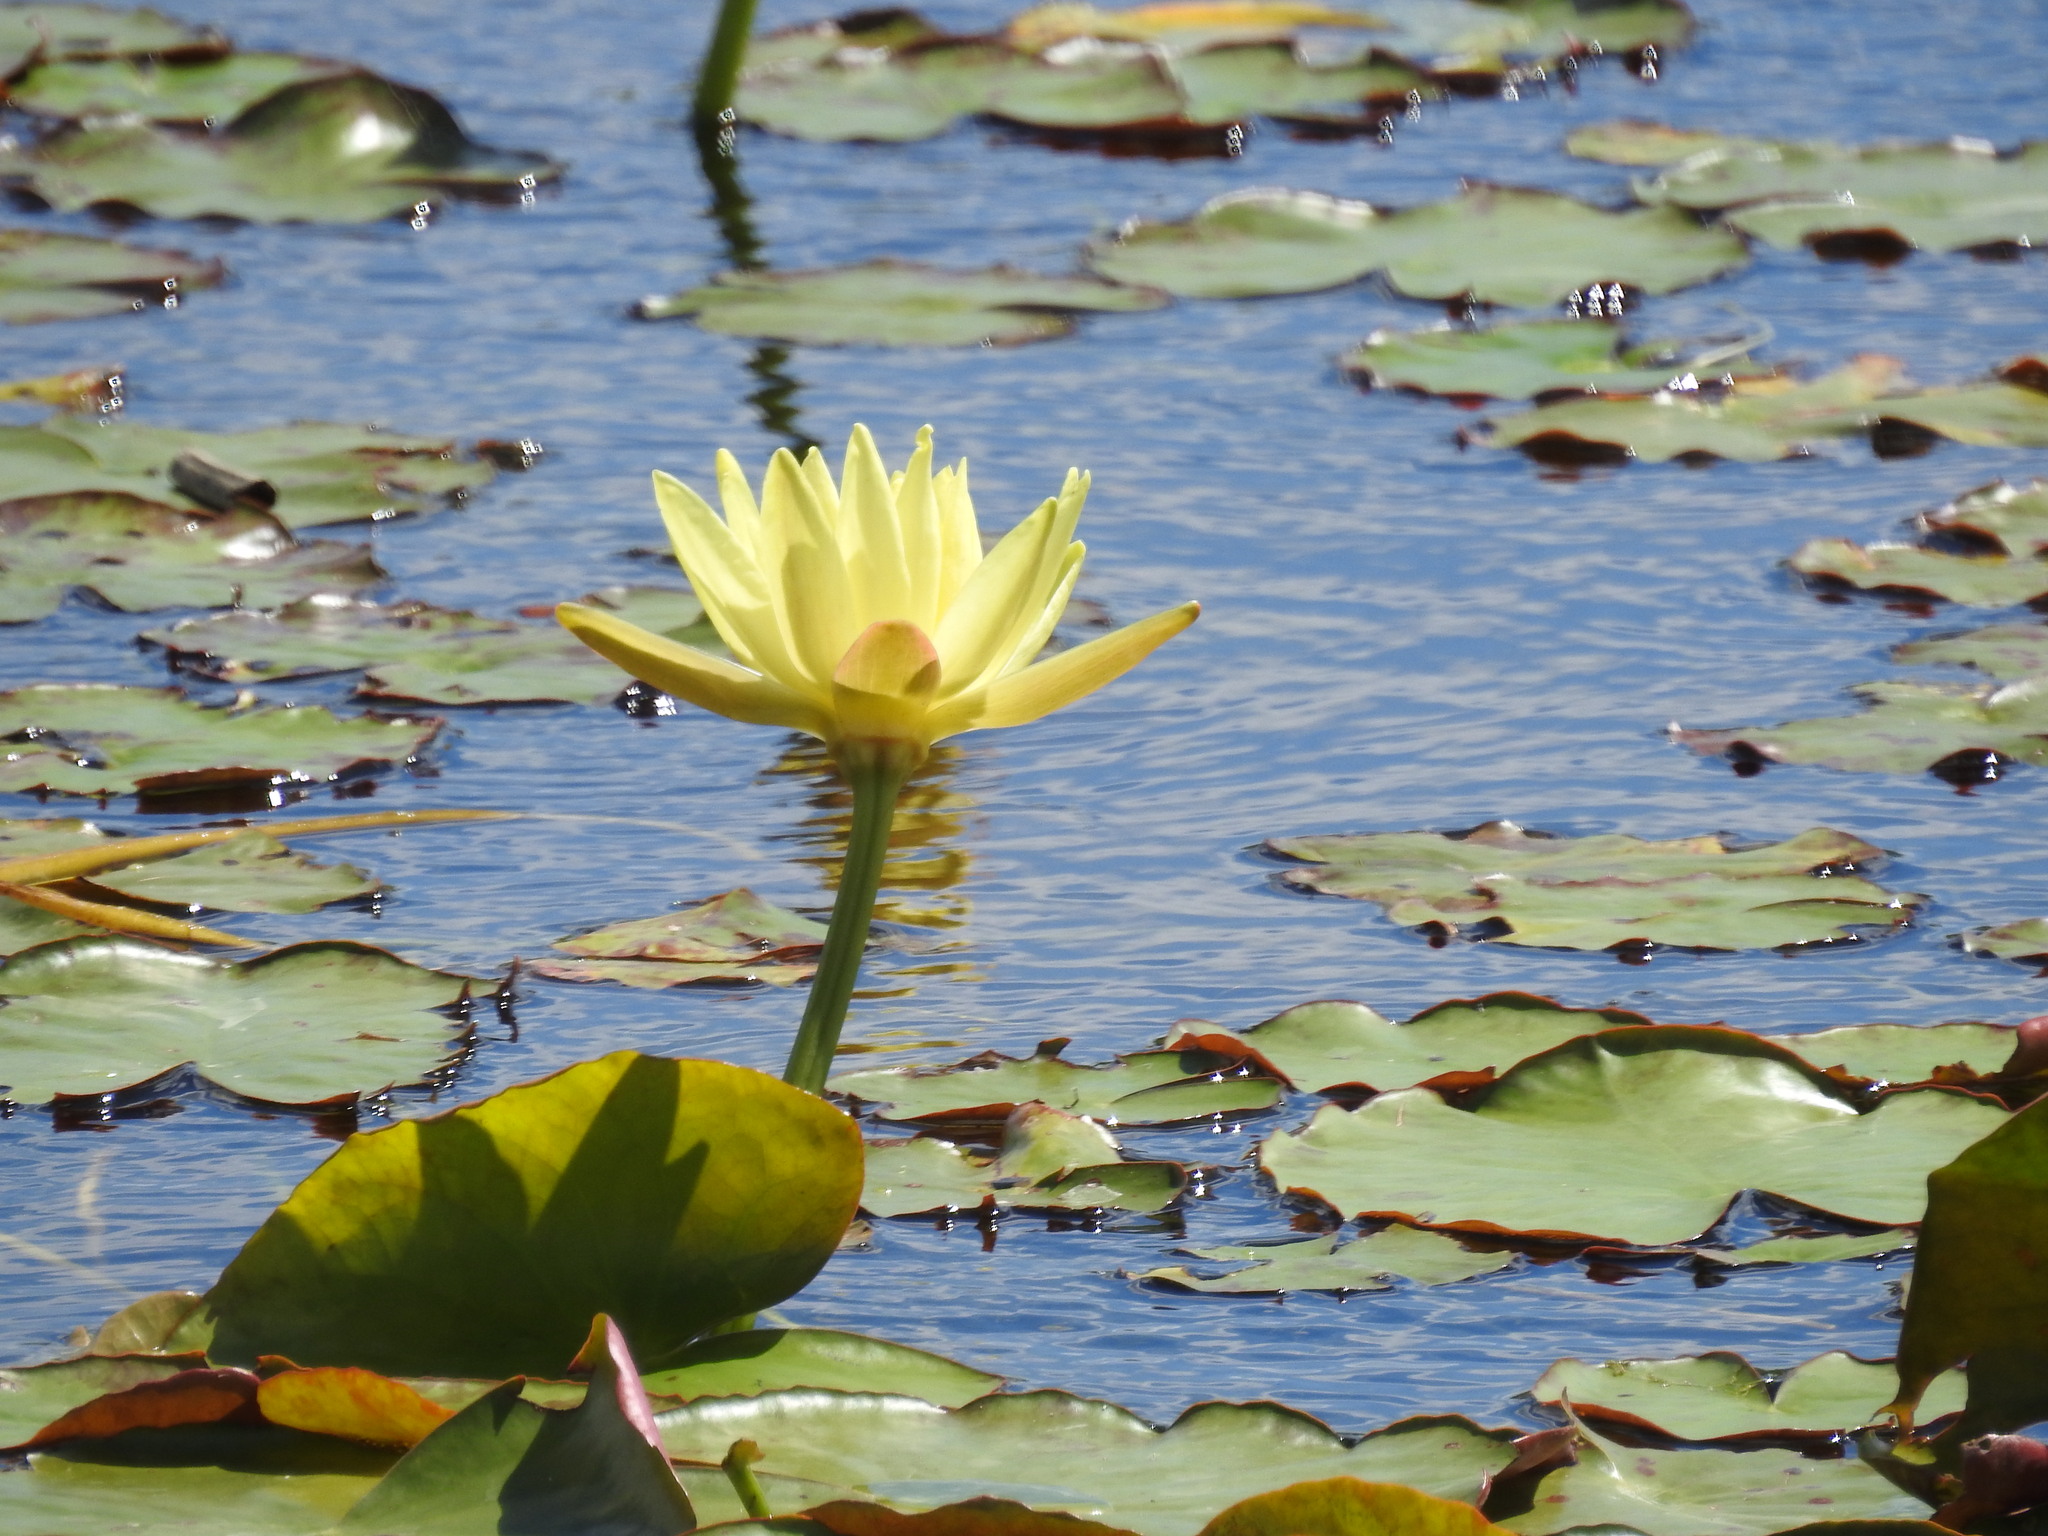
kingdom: Plantae
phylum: Tracheophyta
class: Magnoliopsida
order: Nymphaeales
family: Nymphaeaceae
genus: Nymphaea
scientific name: Nymphaea mexicana
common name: Banana water-lily
